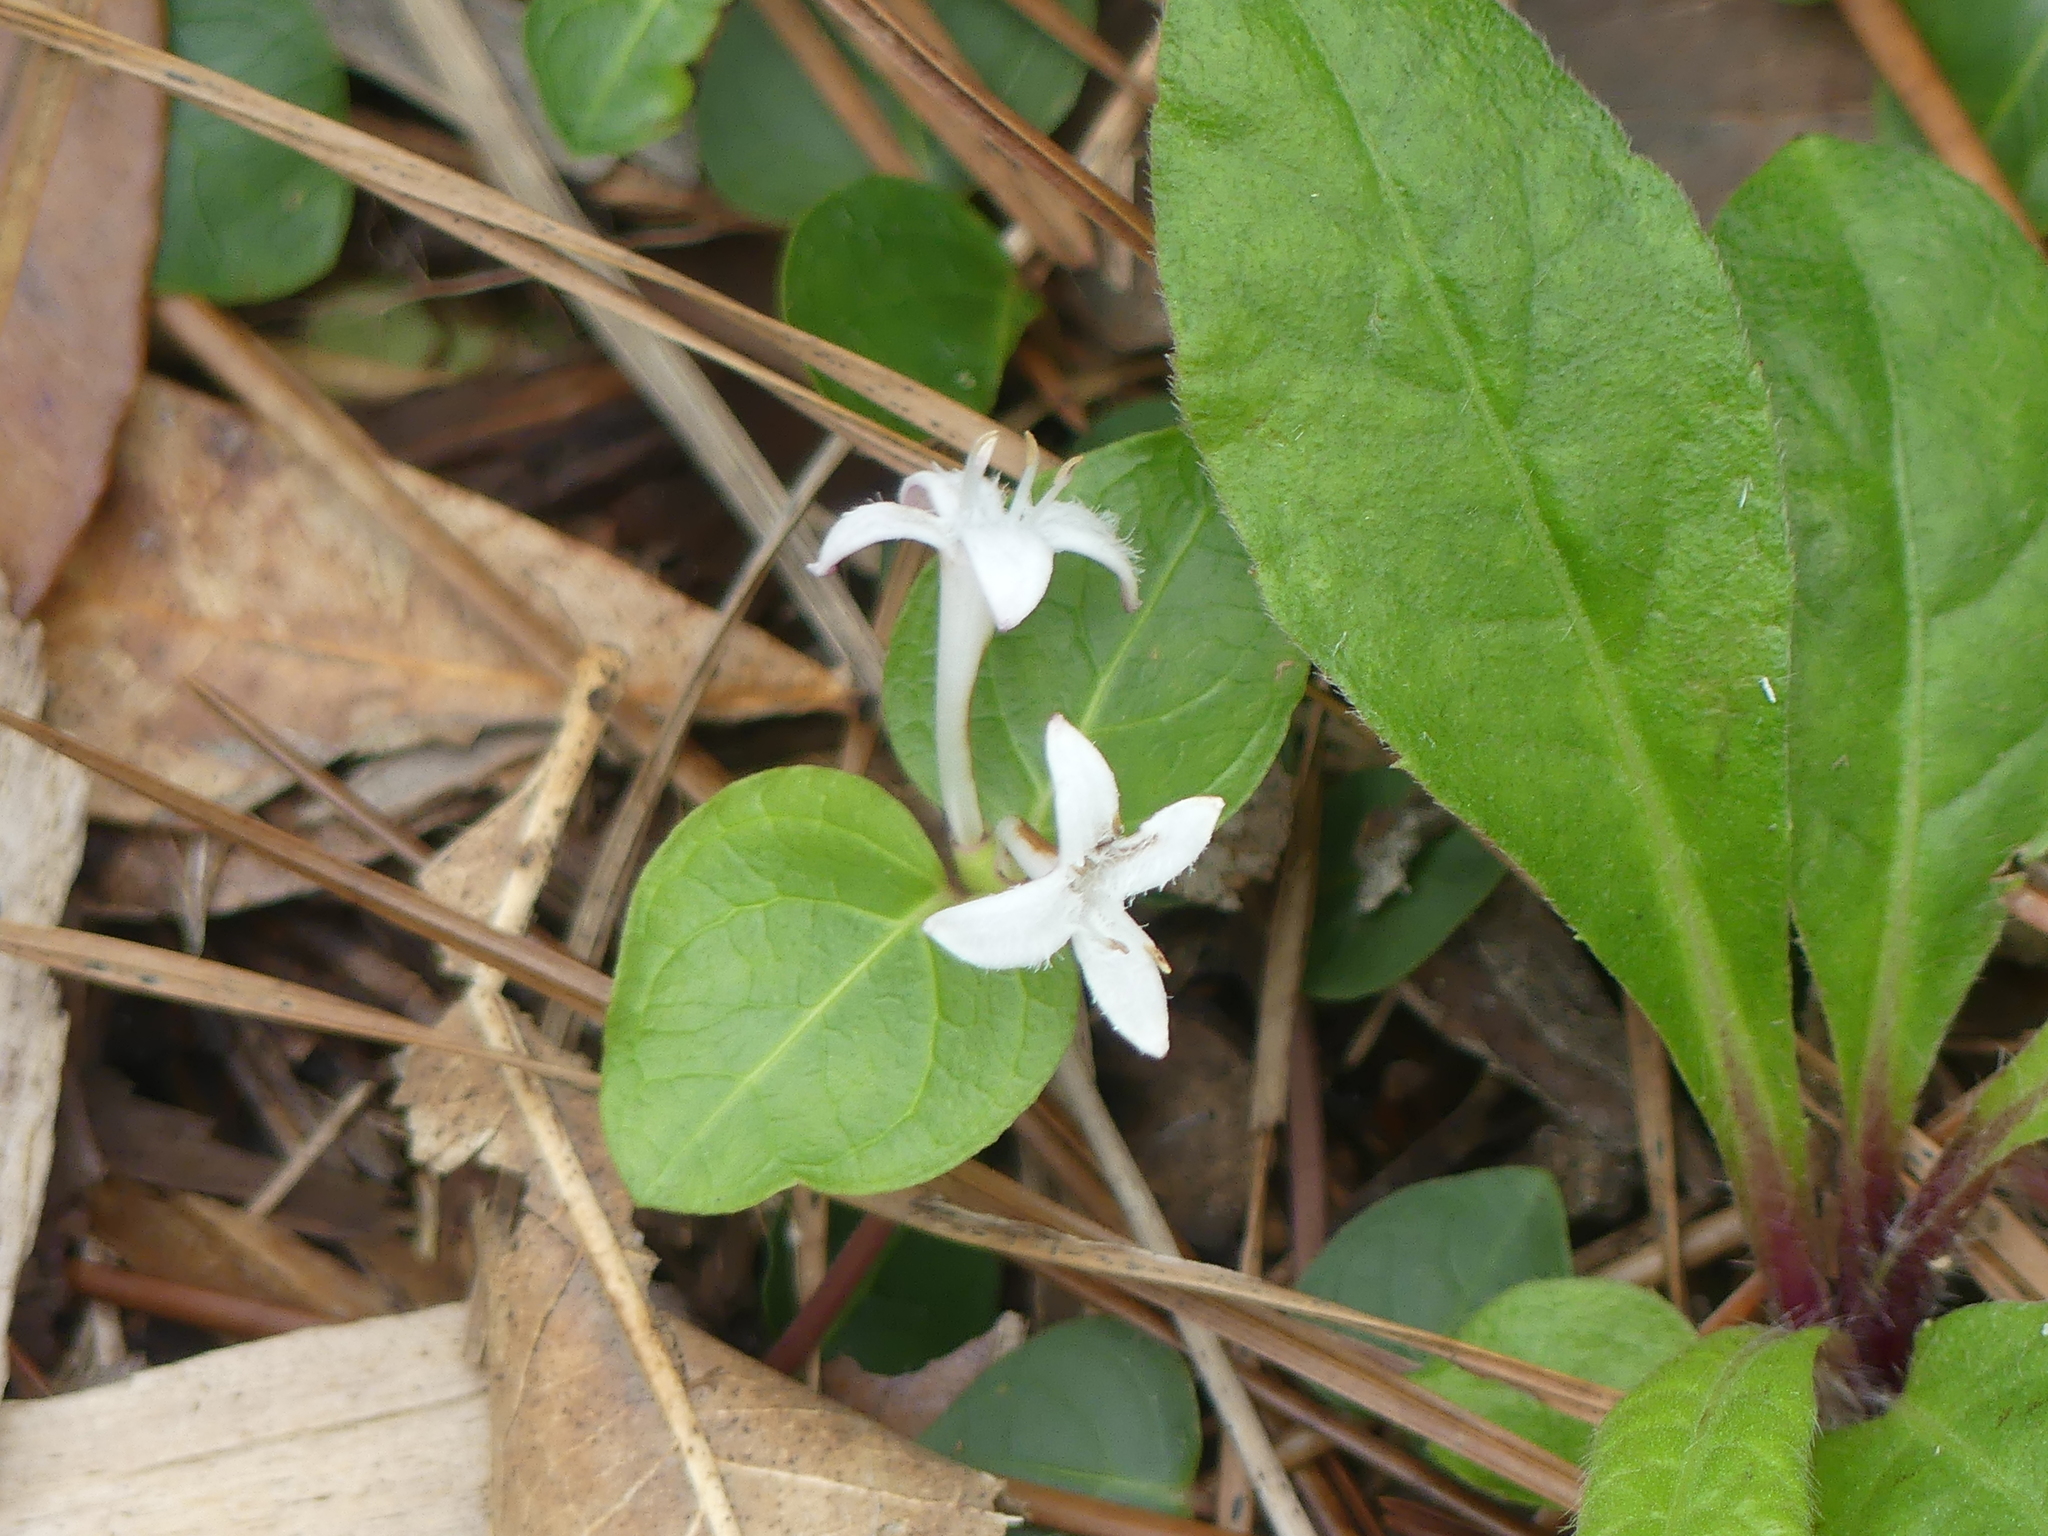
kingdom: Plantae
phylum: Tracheophyta
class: Magnoliopsida
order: Gentianales
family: Rubiaceae
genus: Mitchella
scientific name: Mitchella repens
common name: Partridge-berry
